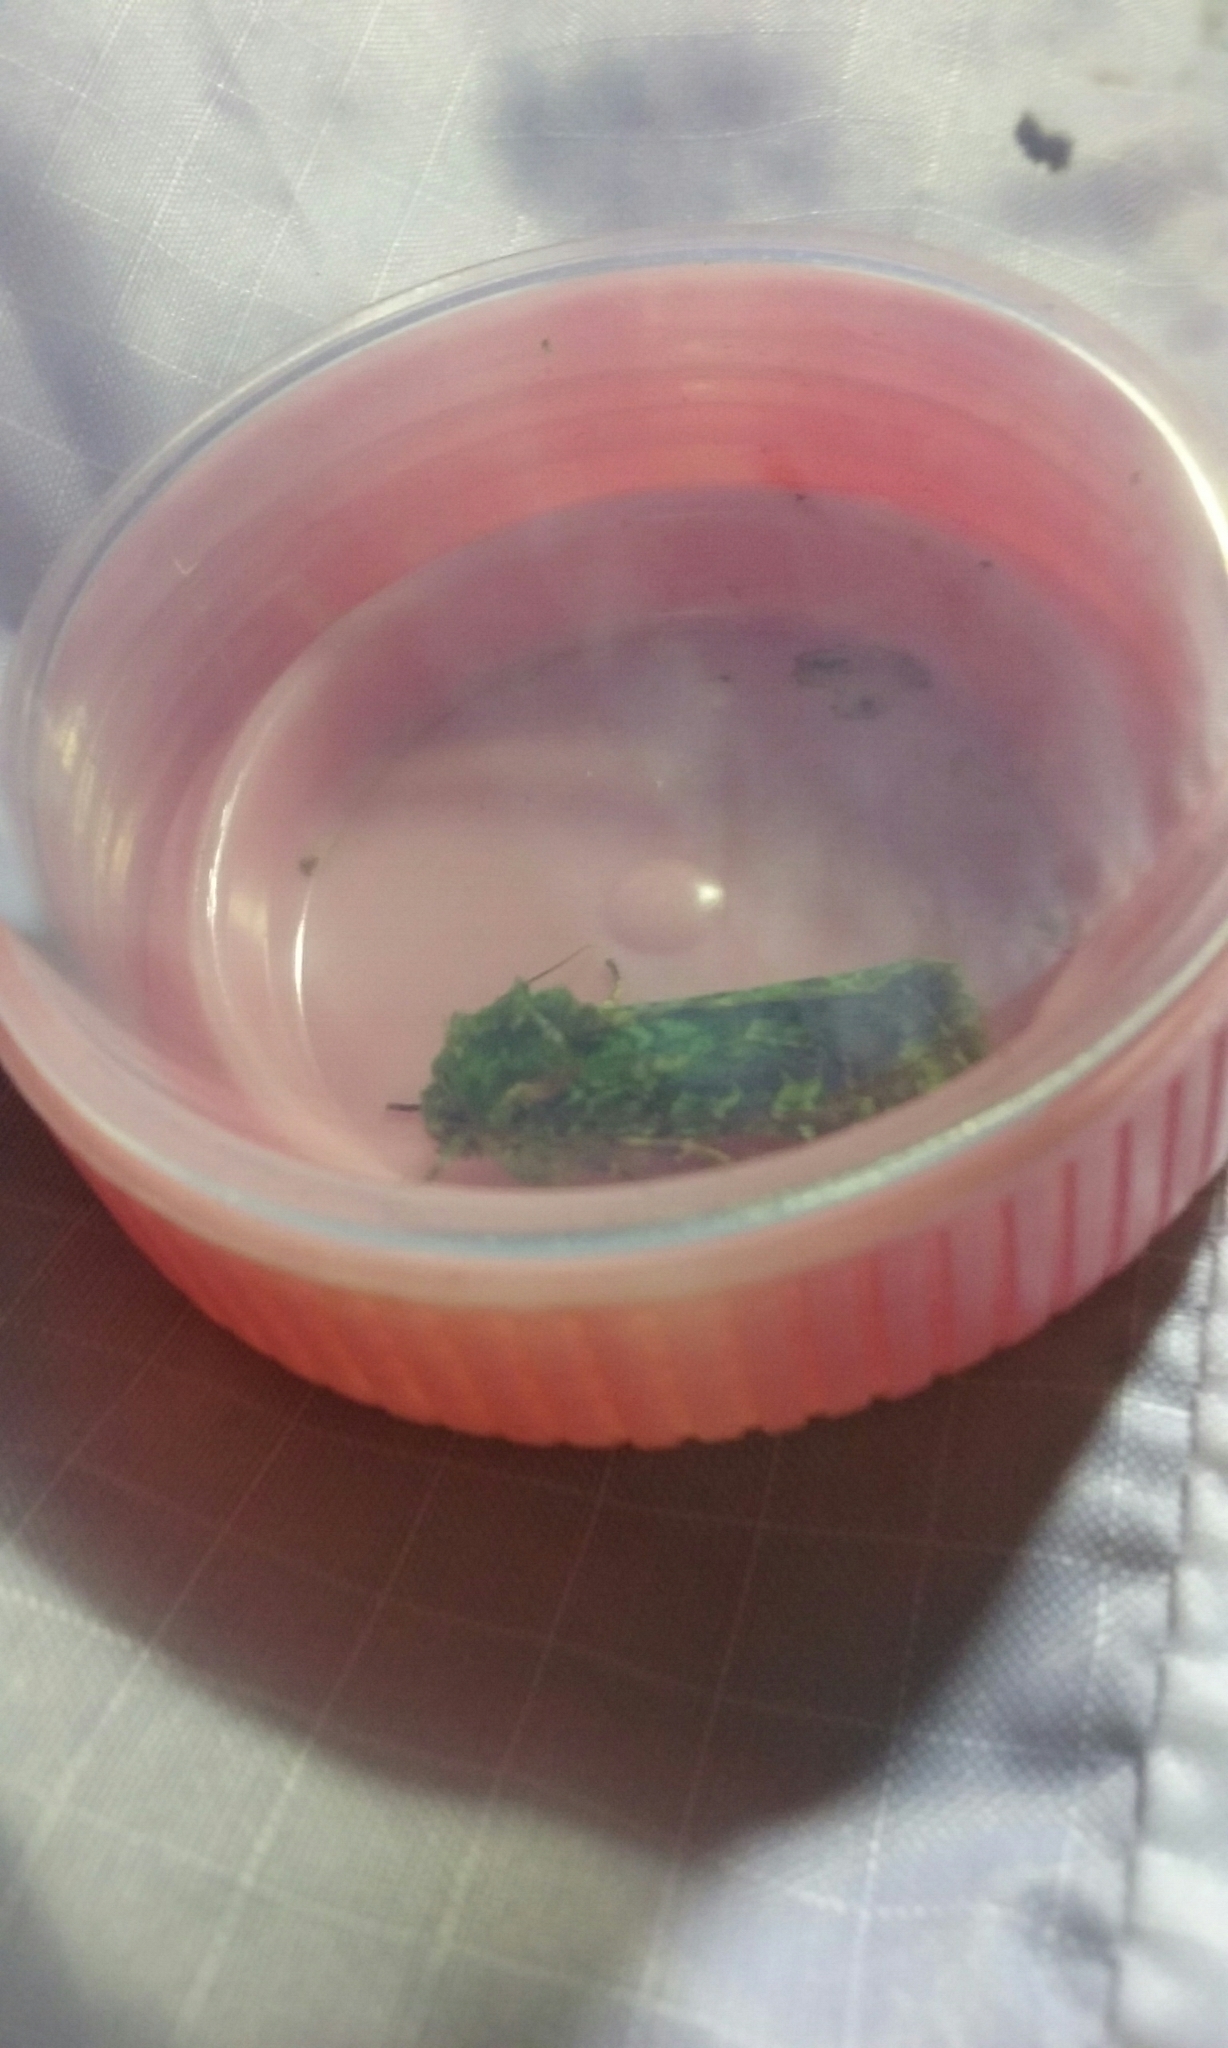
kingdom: Animalia
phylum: Arthropoda
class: Insecta
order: Lepidoptera
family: Noctuidae
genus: Feredayia
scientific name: Feredayia grammosa
